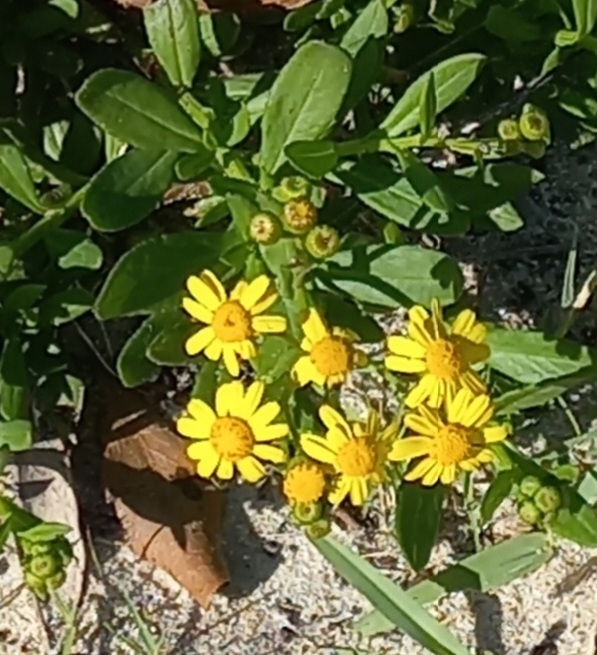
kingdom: Plantae
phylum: Tracheophyta
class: Magnoliopsida
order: Asterales
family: Asteraceae
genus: Senecio
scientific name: Senecio litorosus
